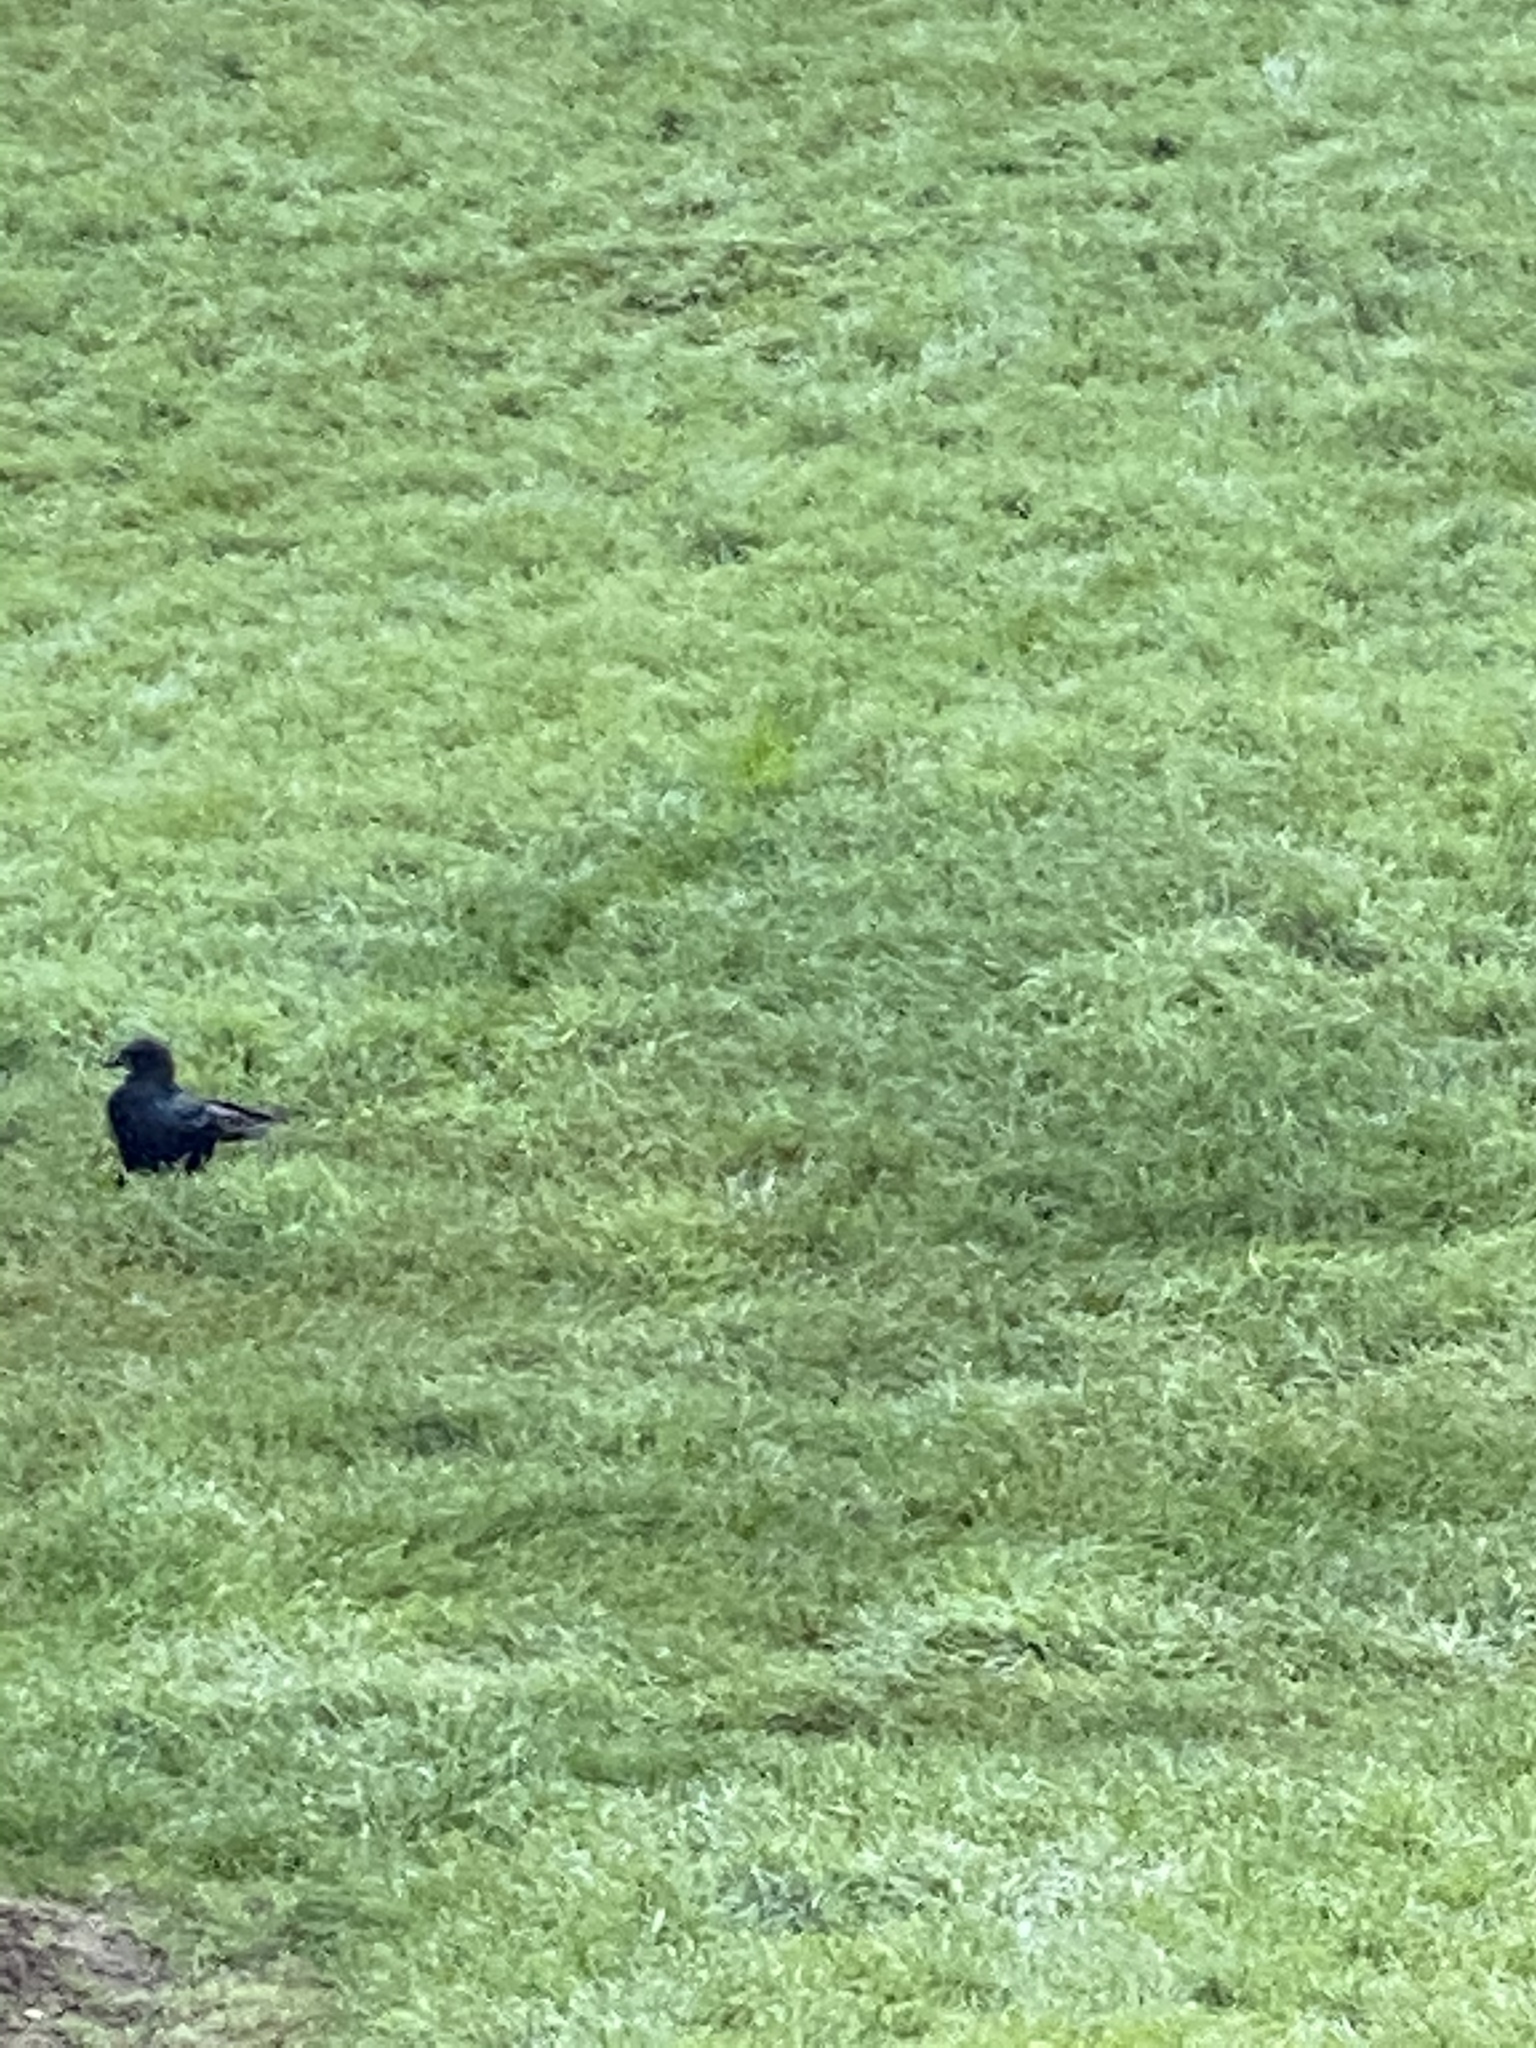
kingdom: Animalia
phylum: Chordata
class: Aves
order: Passeriformes
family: Corvidae
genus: Corvus
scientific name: Corvus brachyrhynchos
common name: American crow
